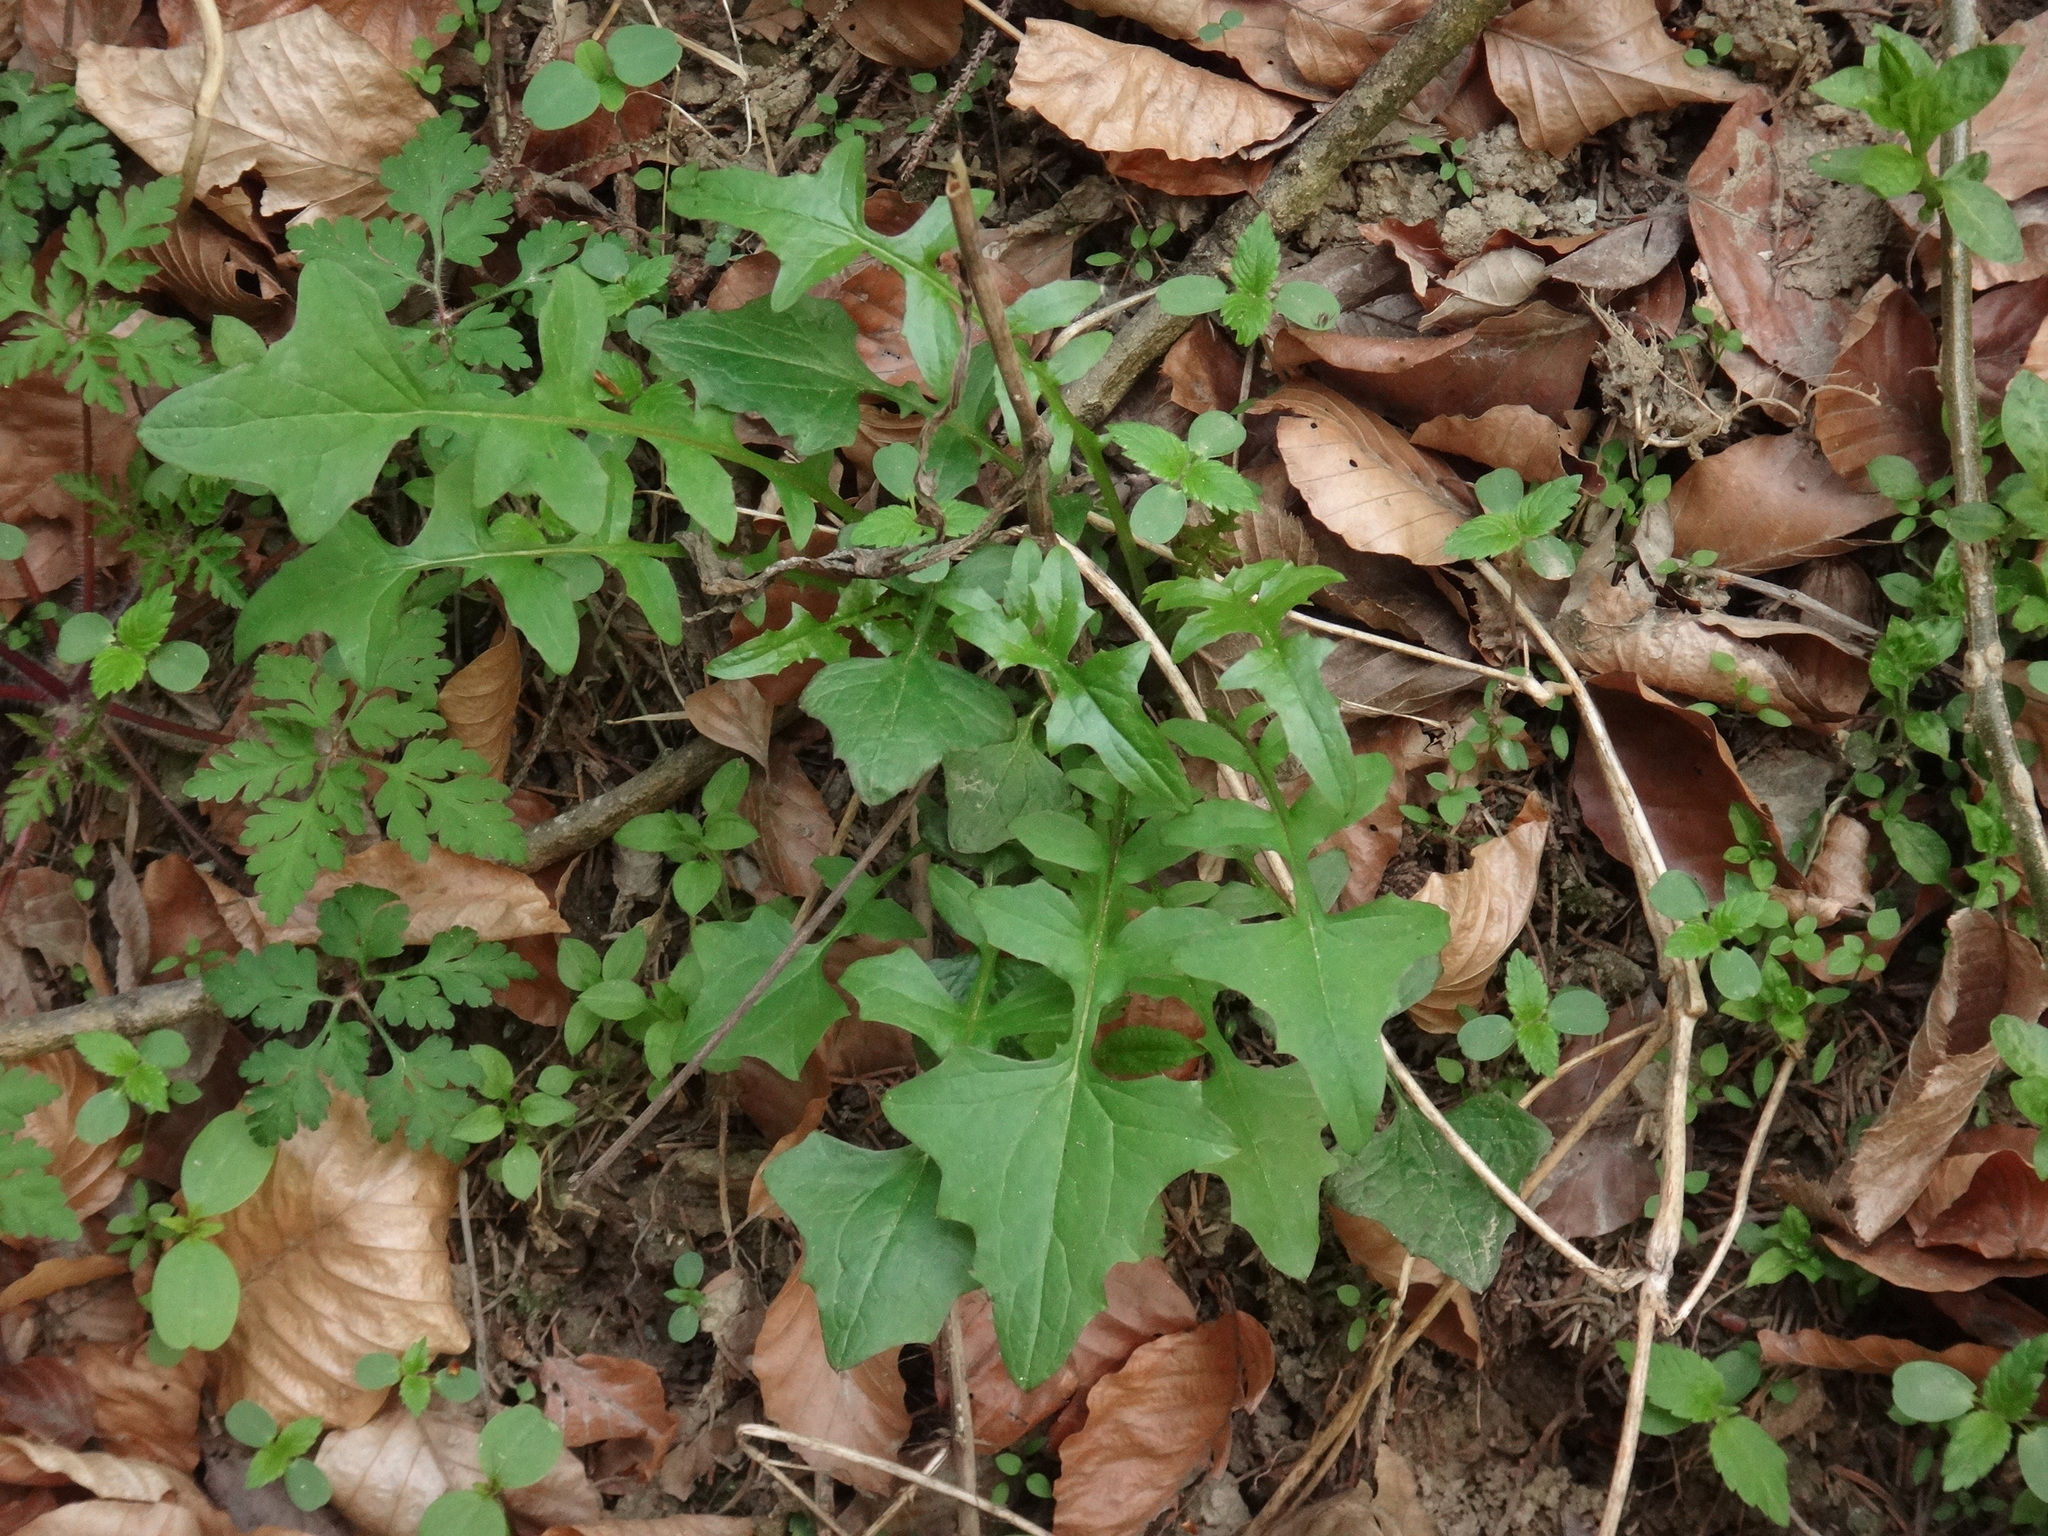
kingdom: Plantae
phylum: Tracheophyta
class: Magnoliopsida
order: Asterales
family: Asteraceae
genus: Mycelis
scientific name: Mycelis muralis
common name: Wall lettuce
